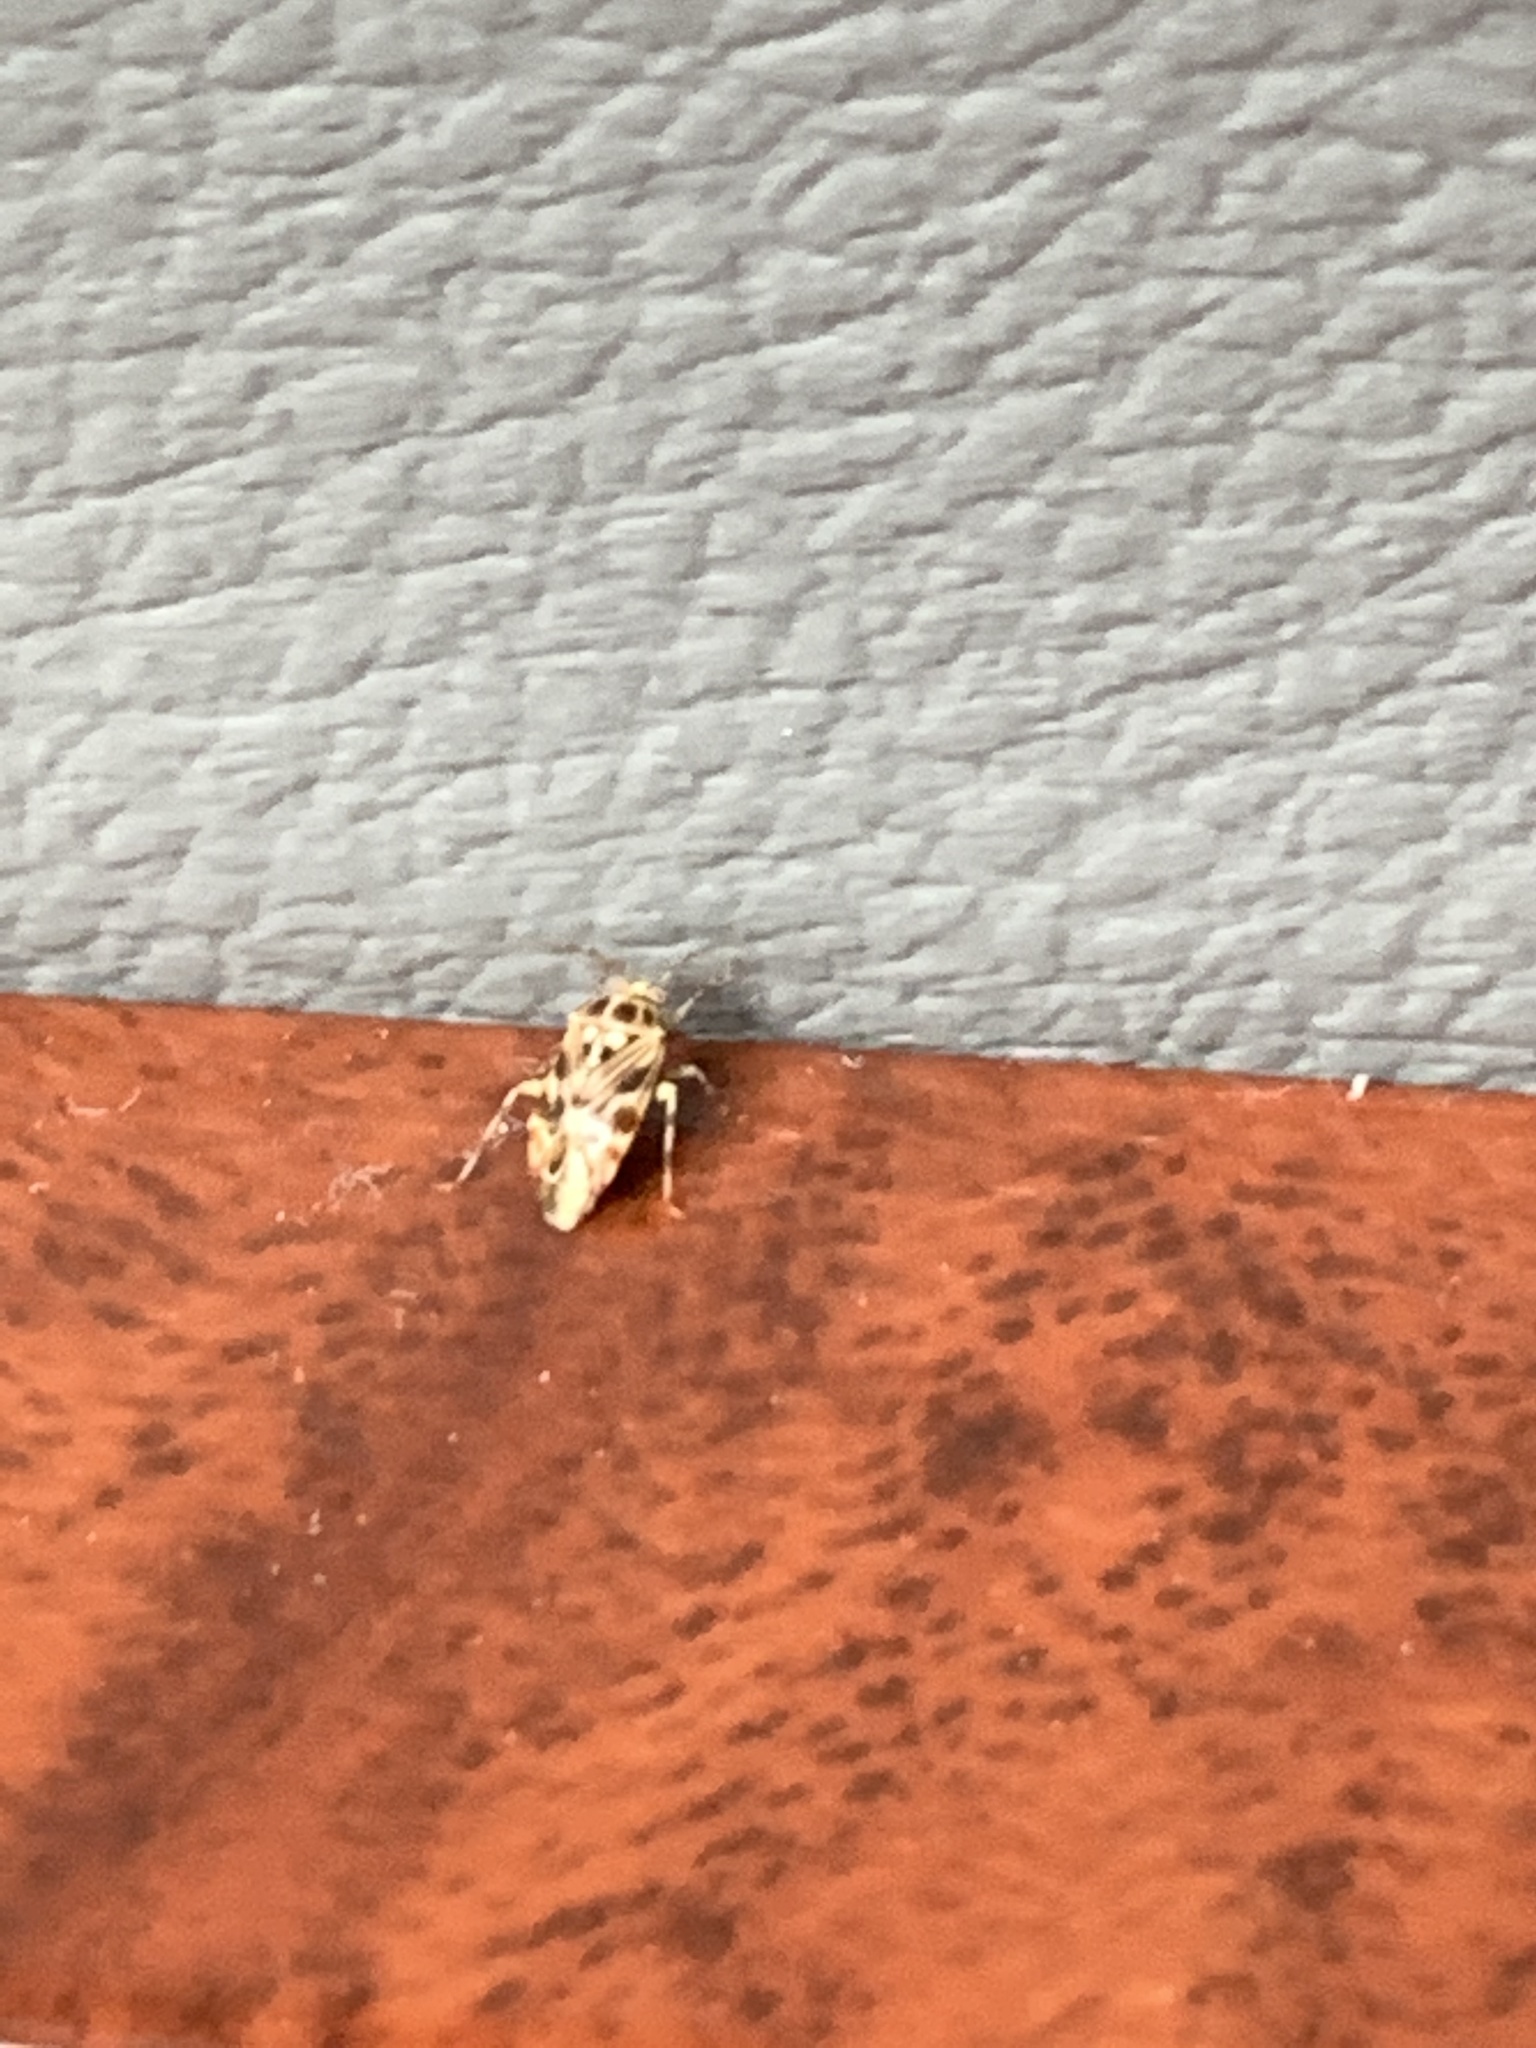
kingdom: Animalia
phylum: Arthropoda
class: Insecta
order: Hemiptera
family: Miridae
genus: Tropidosteptes
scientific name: Tropidosteptes quercicola
